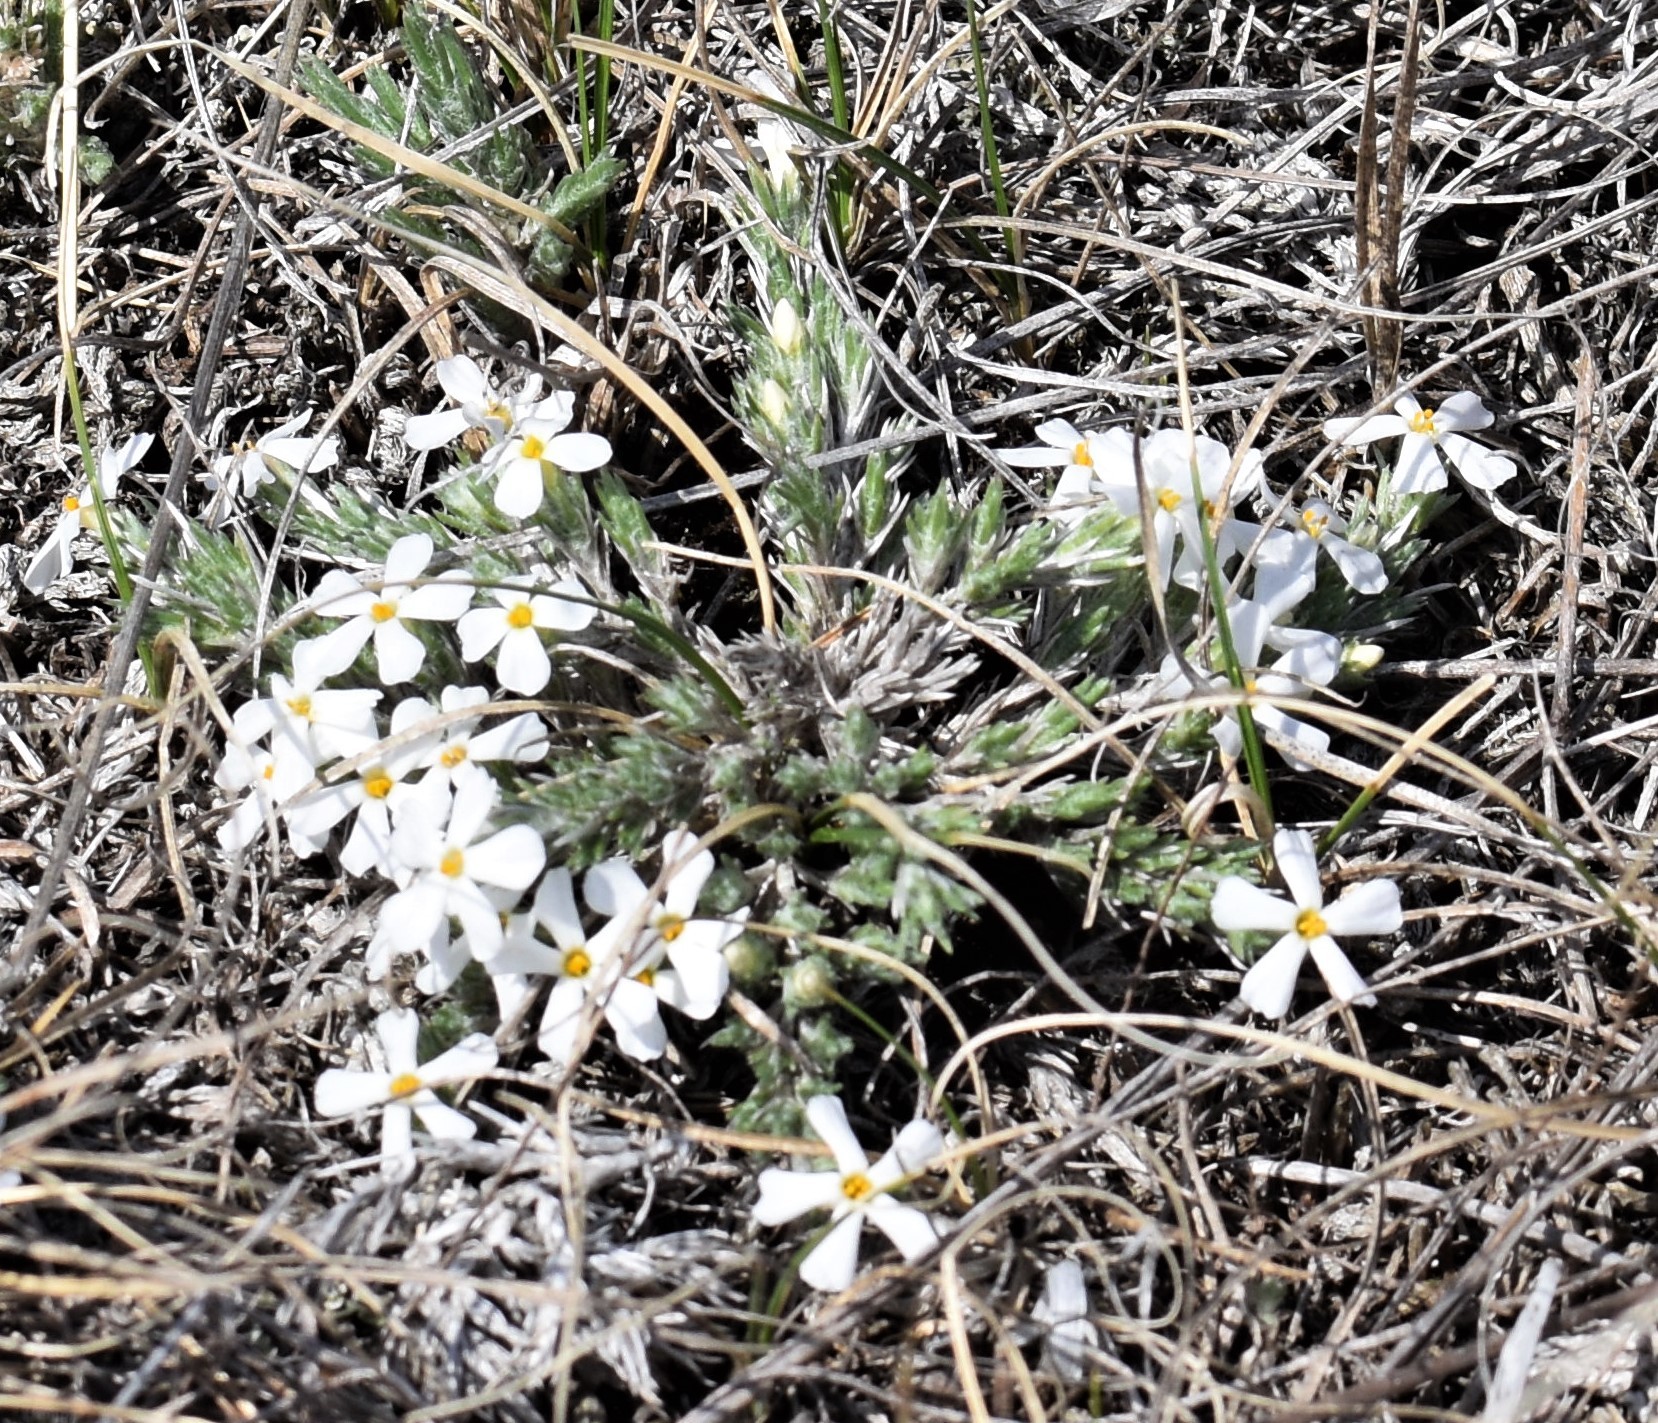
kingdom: Plantae
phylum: Tracheophyta
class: Magnoliopsida
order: Ericales
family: Polemoniaceae
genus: Phlox
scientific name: Phlox hoodii
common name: Moss phlox
